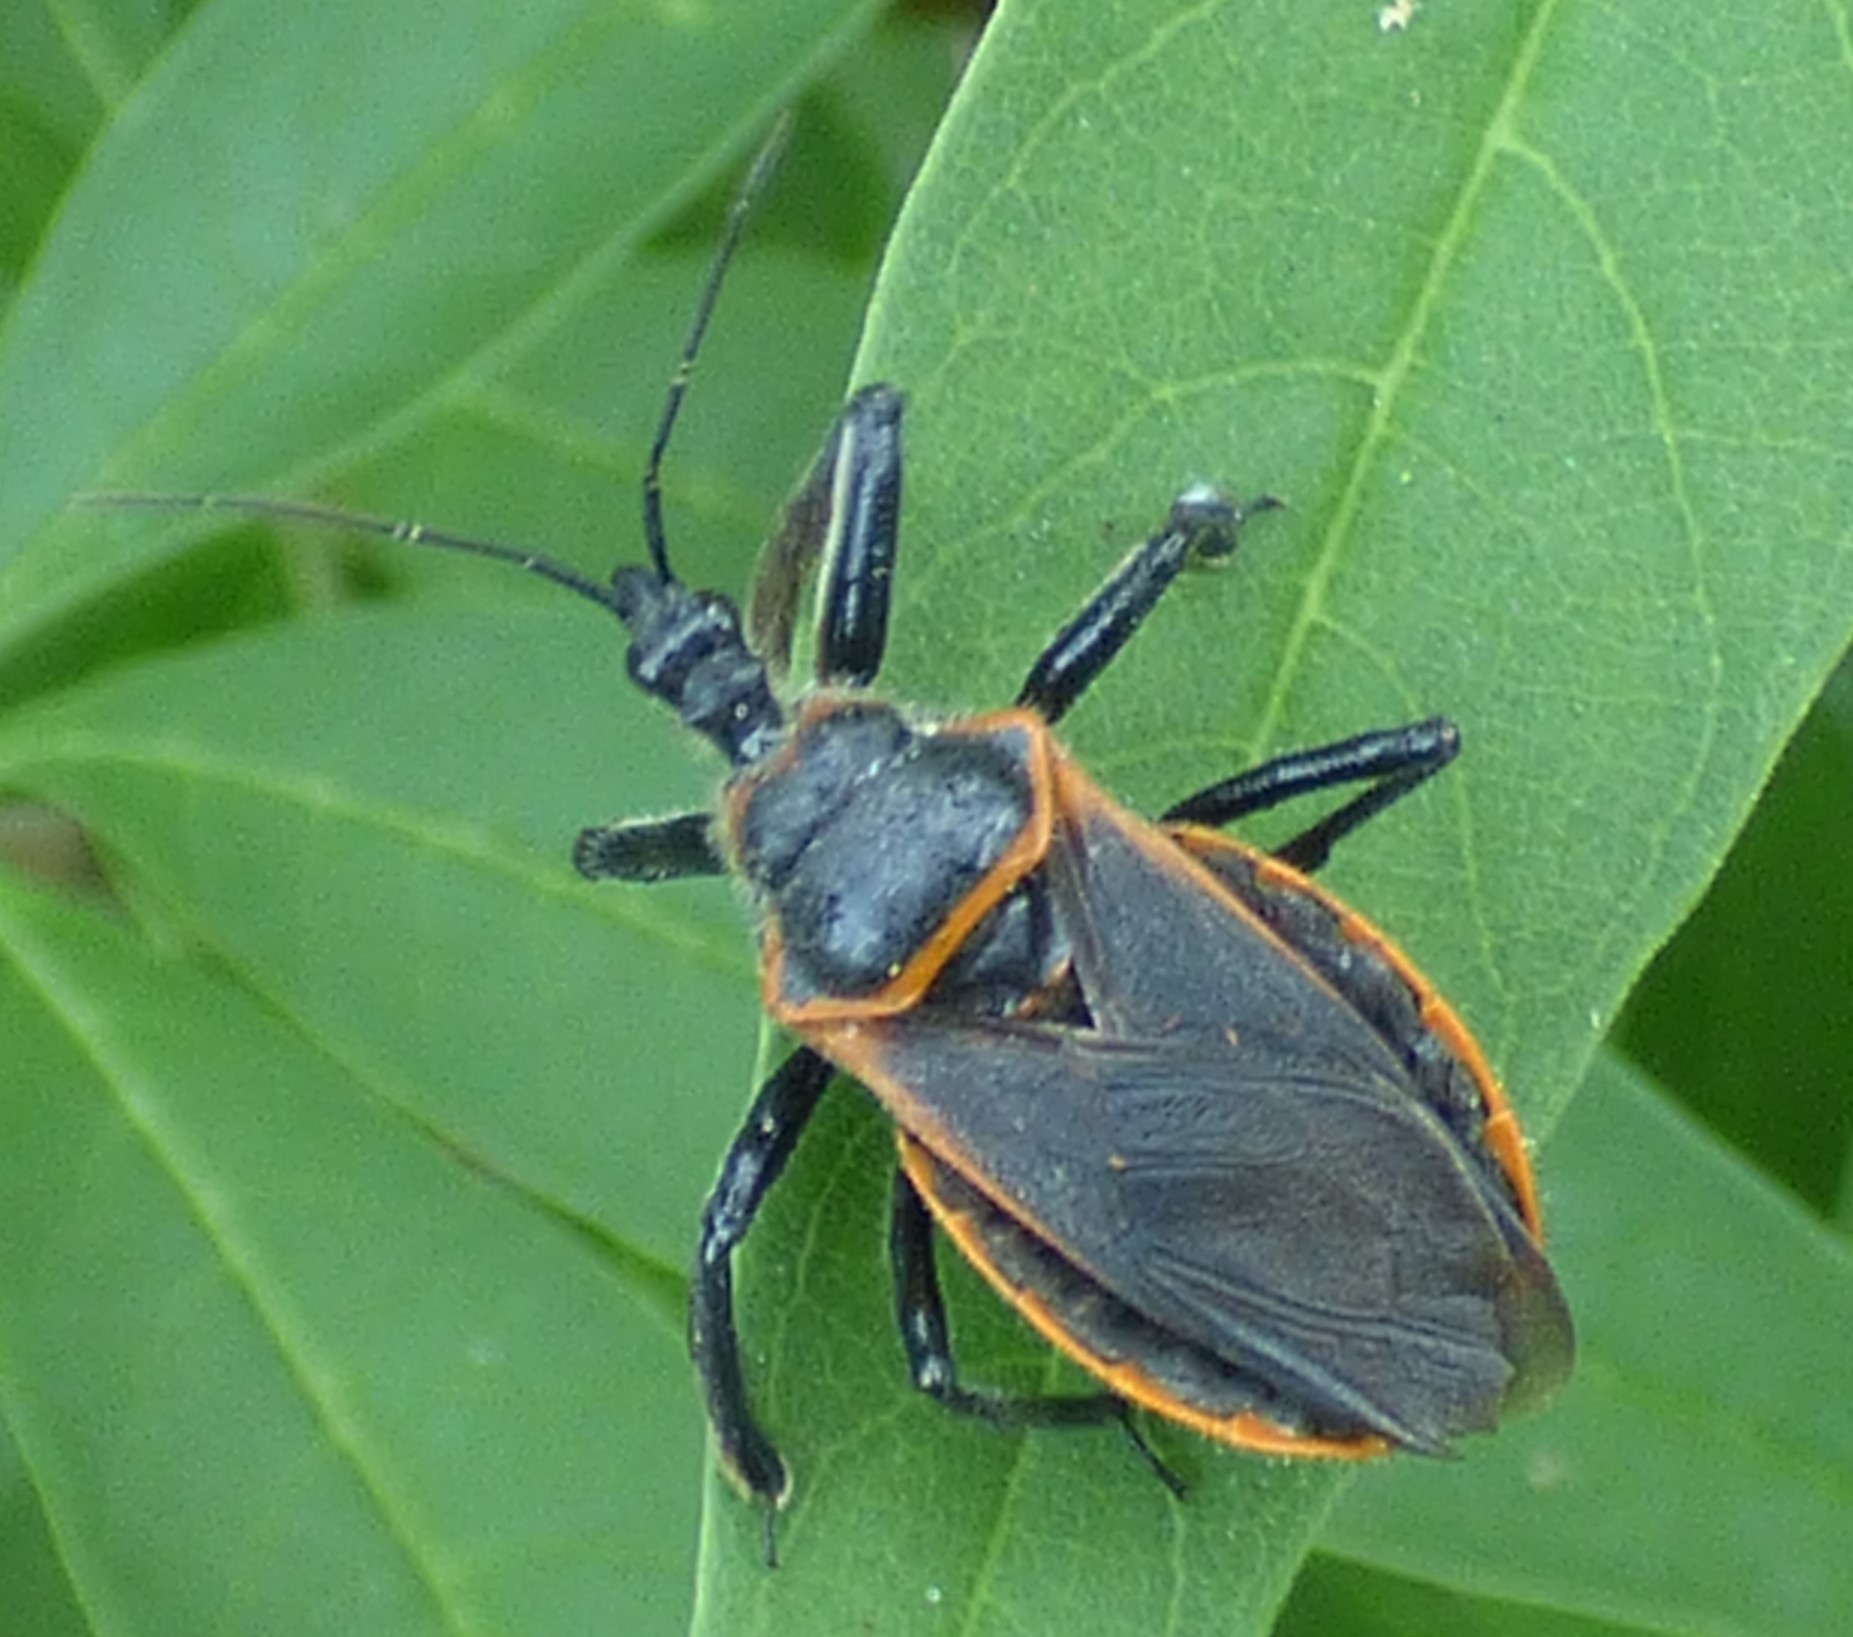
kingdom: Animalia
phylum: Arthropoda
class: Insecta
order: Hemiptera
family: Reduviidae
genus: Apiomerus
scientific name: Apiomerus crassipes
